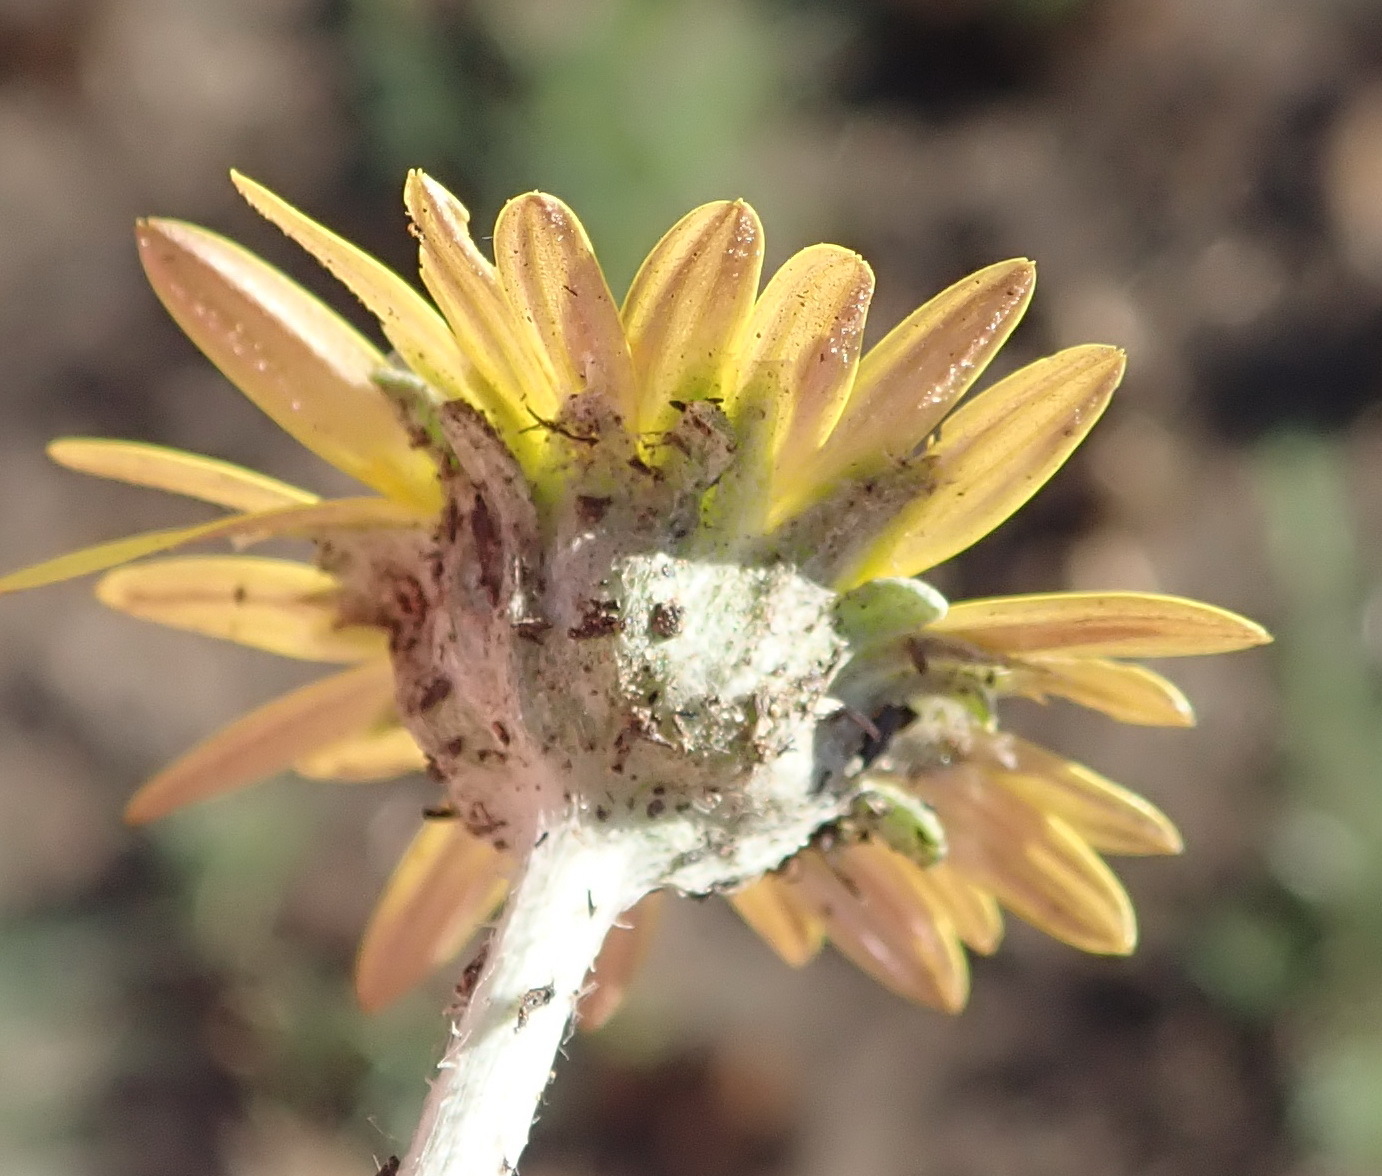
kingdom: Plantae
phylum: Tracheophyta
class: Magnoliopsida
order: Asterales
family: Asteraceae
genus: Arctotis
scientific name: Arctotis arctotoides
